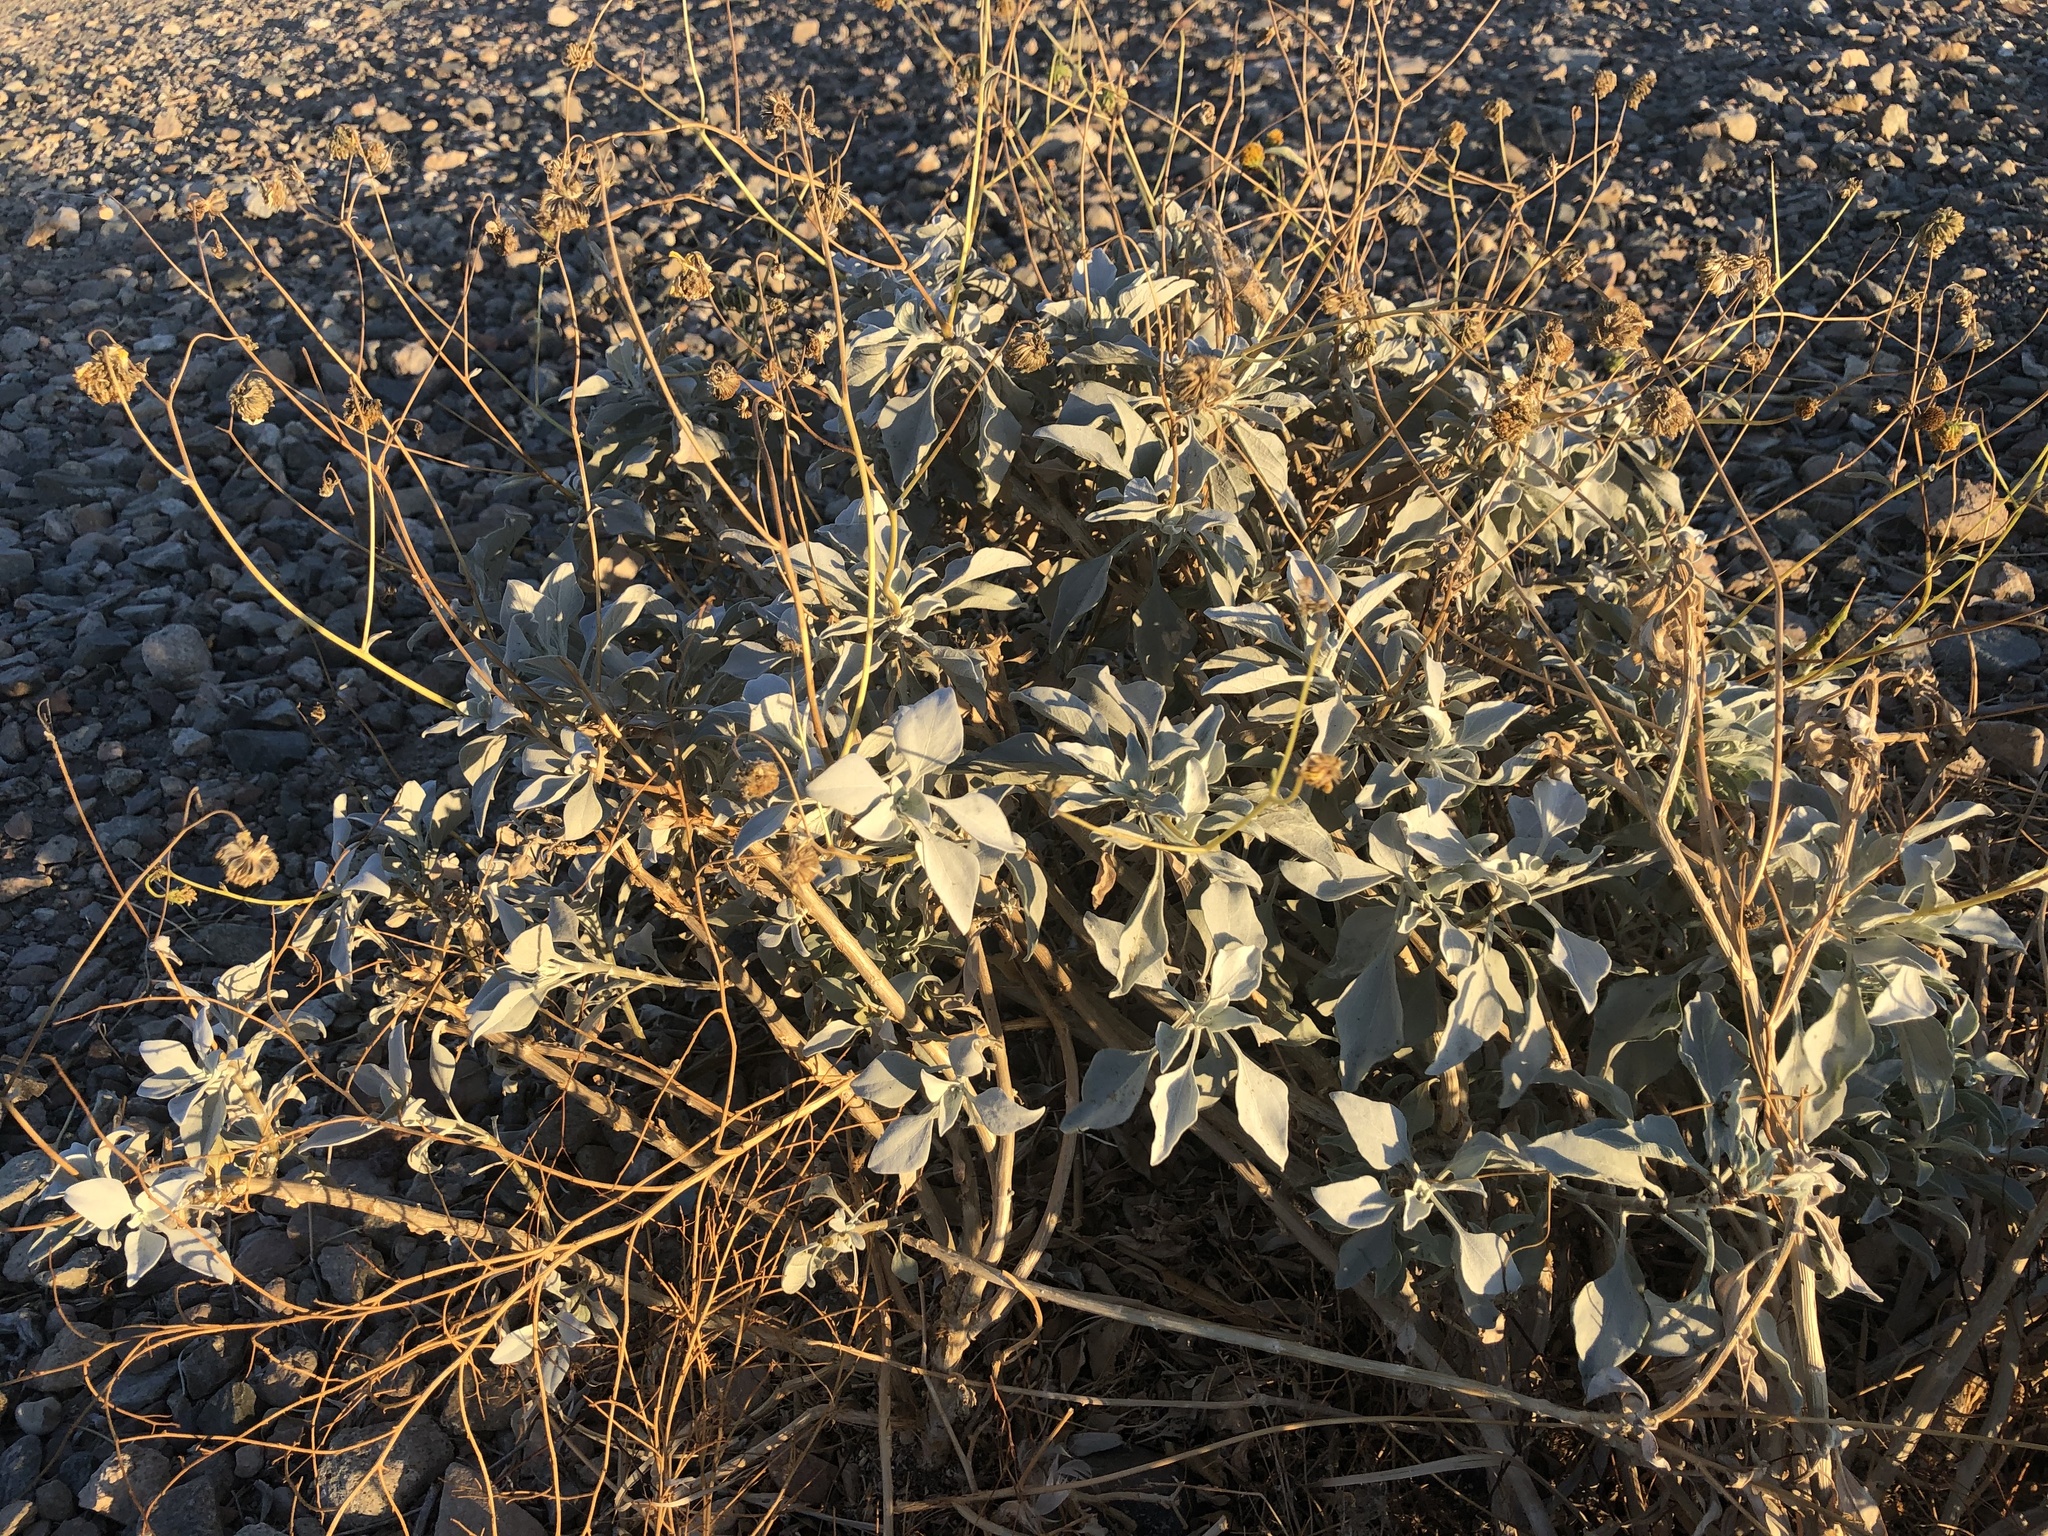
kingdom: Plantae
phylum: Tracheophyta
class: Magnoliopsida
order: Asterales
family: Asteraceae
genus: Encelia
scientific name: Encelia farinosa
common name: Brittlebush
